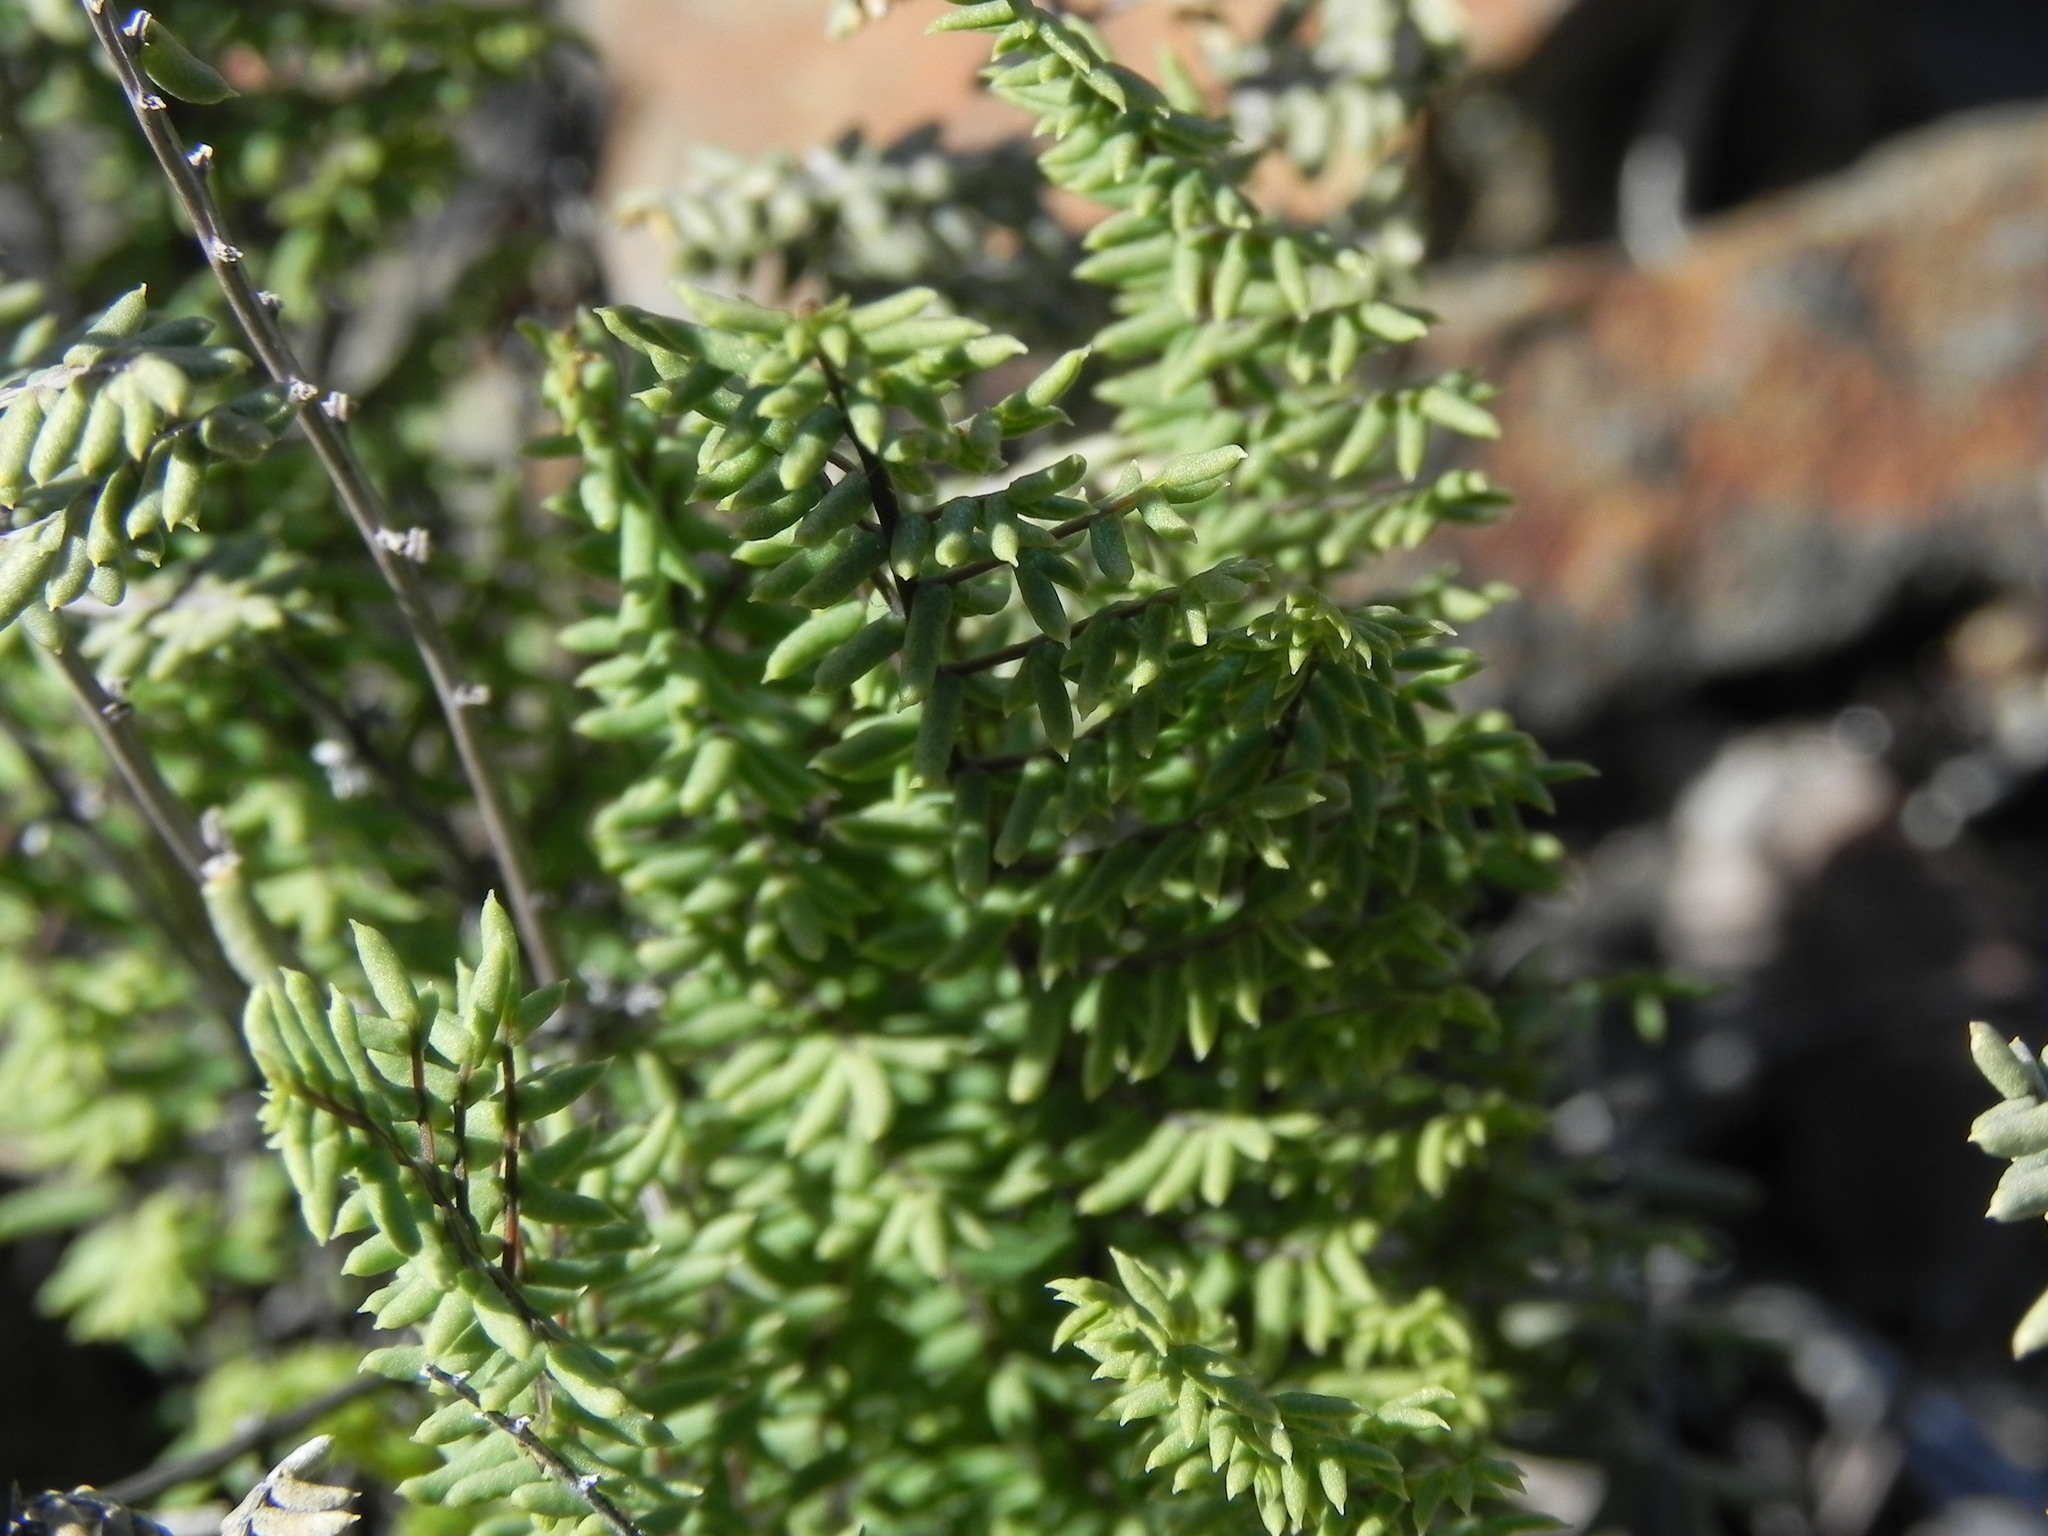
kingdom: Plantae
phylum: Tracheophyta
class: Polypodiopsida
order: Polypodiales
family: Pteridaceae
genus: Pellaea
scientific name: Pellaea mucronata
